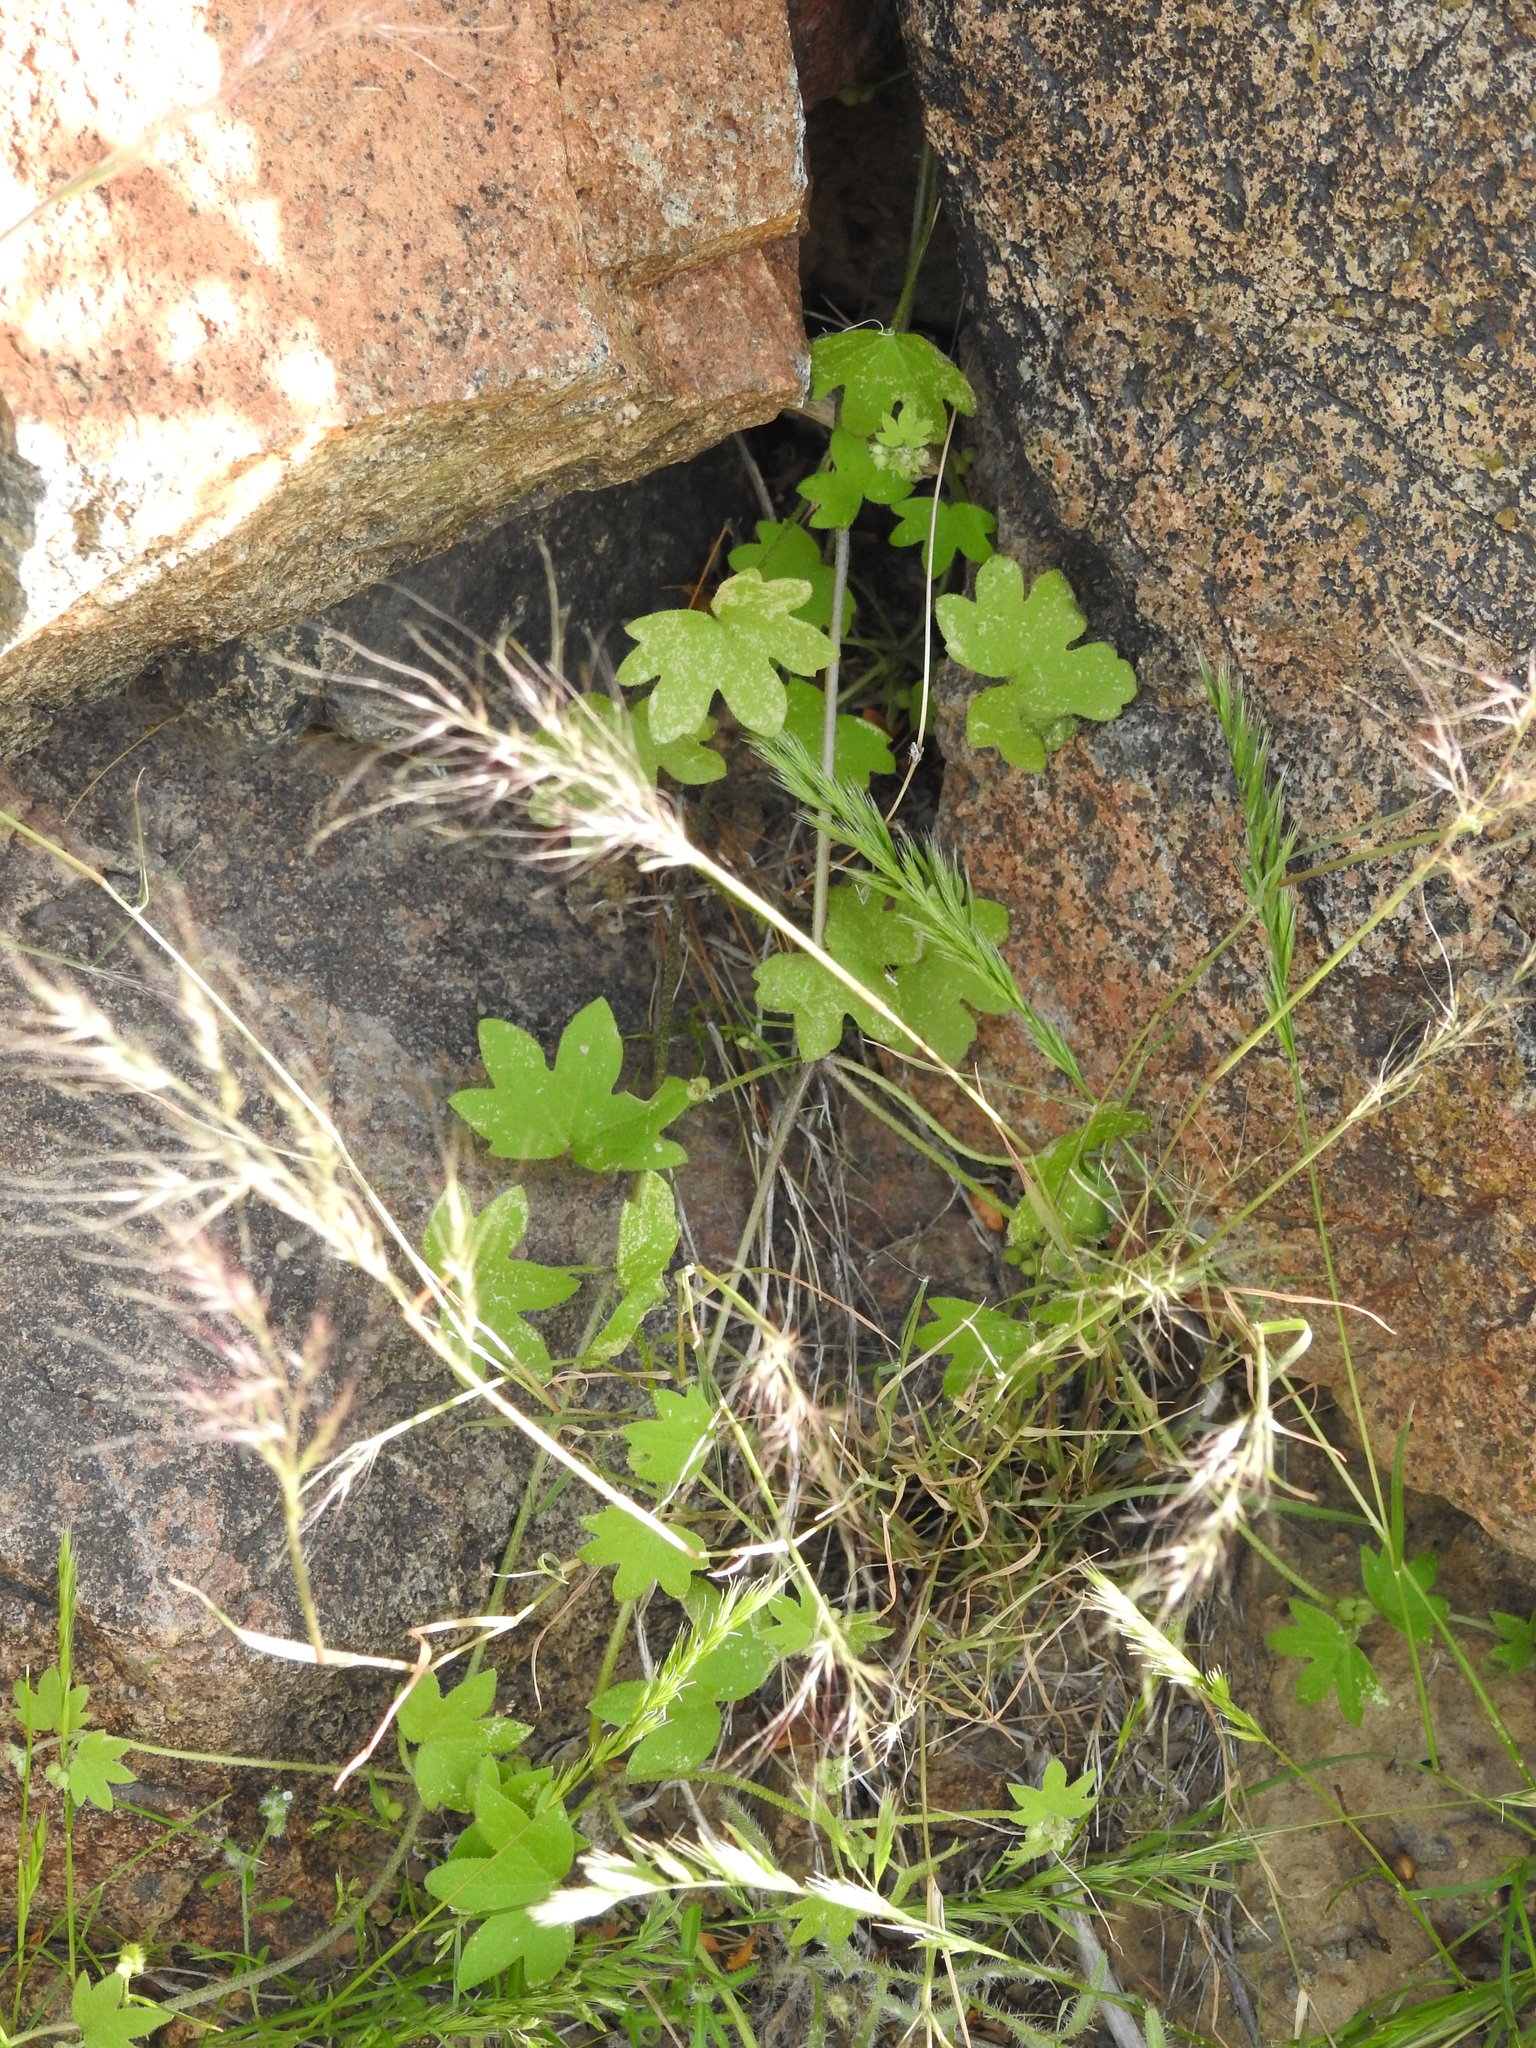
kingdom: Plantae
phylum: Tracheophyta
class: Magnoliopsida
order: Apiales
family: Apiaceae
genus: Bowlesia
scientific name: Bowlesia incana
